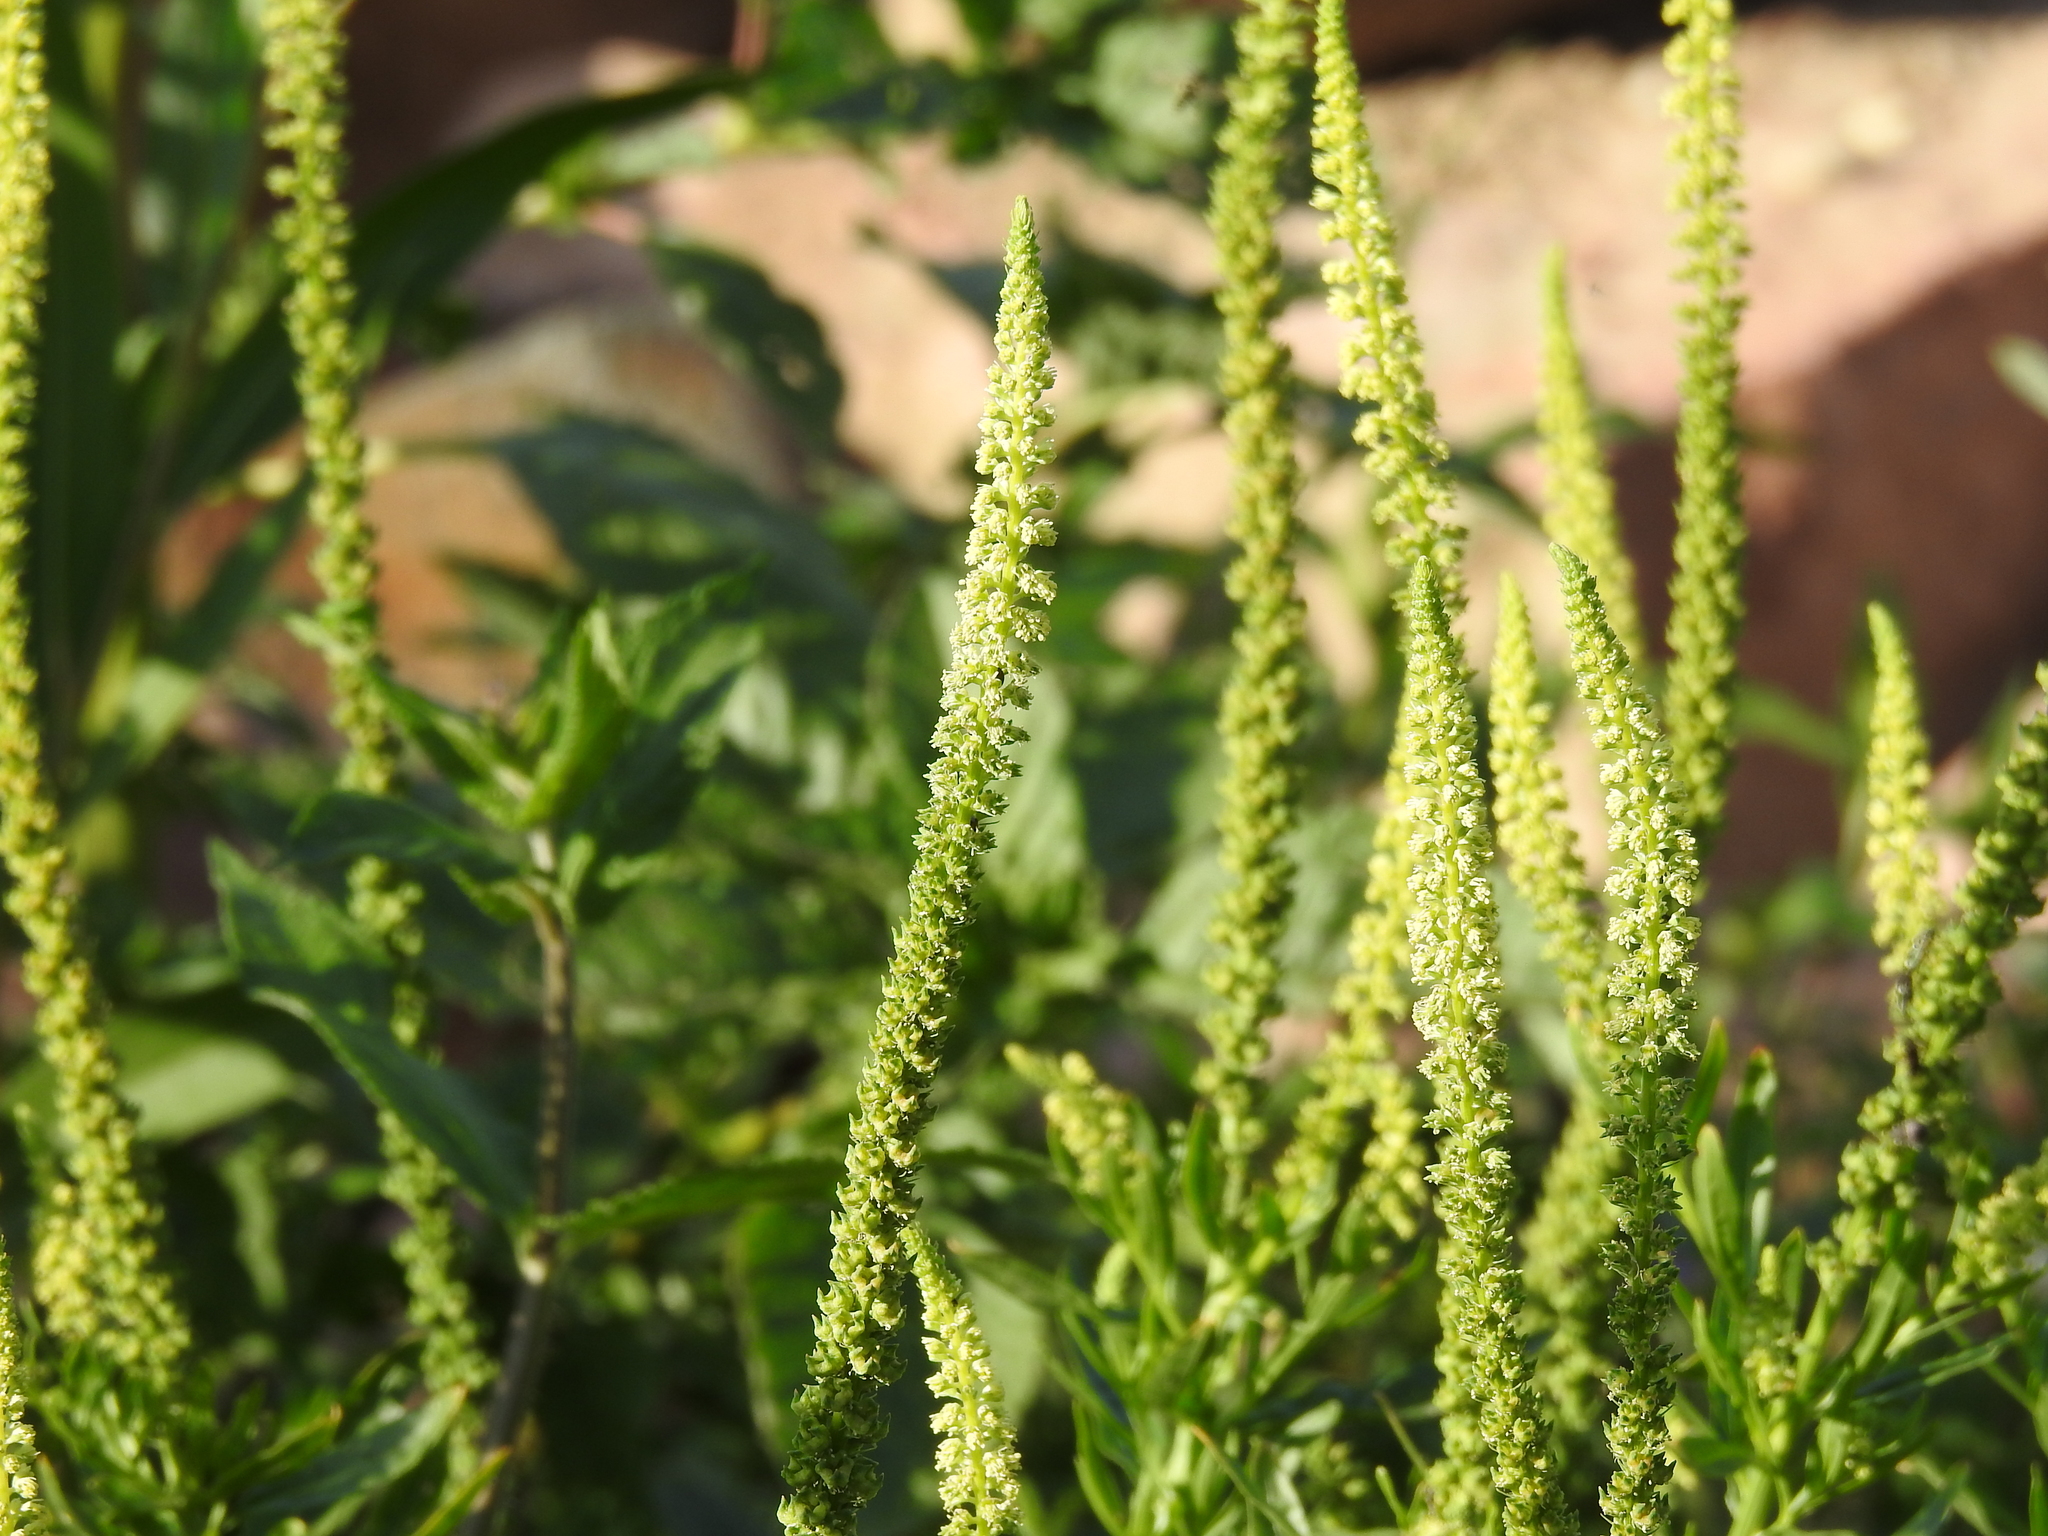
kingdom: Plantae
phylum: Tracheophyta
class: Magnoliopsida
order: Brassicales
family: Resedaceae
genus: Reseda
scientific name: Reseda luteola
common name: Weld
